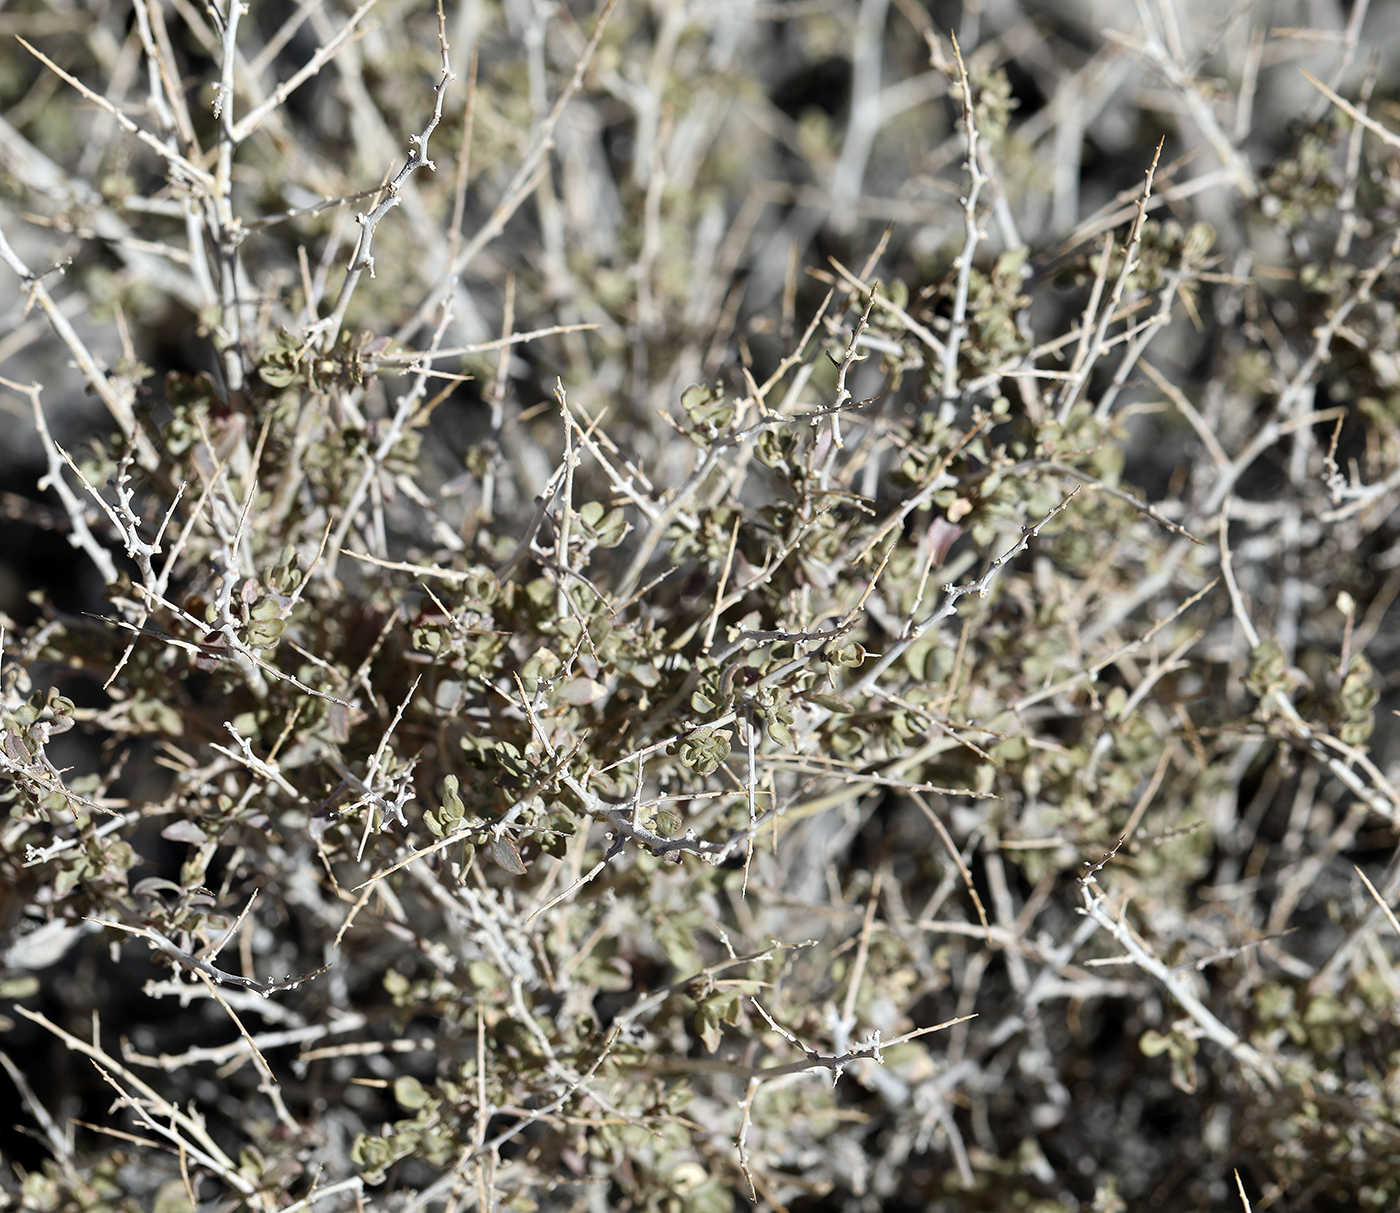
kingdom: Plantae
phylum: Tracheophyta
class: Magnoliopsida
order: Caryophyllales
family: Amaranthaceae
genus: Atriplex
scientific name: Atriplex confertifolia
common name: Shadscale
